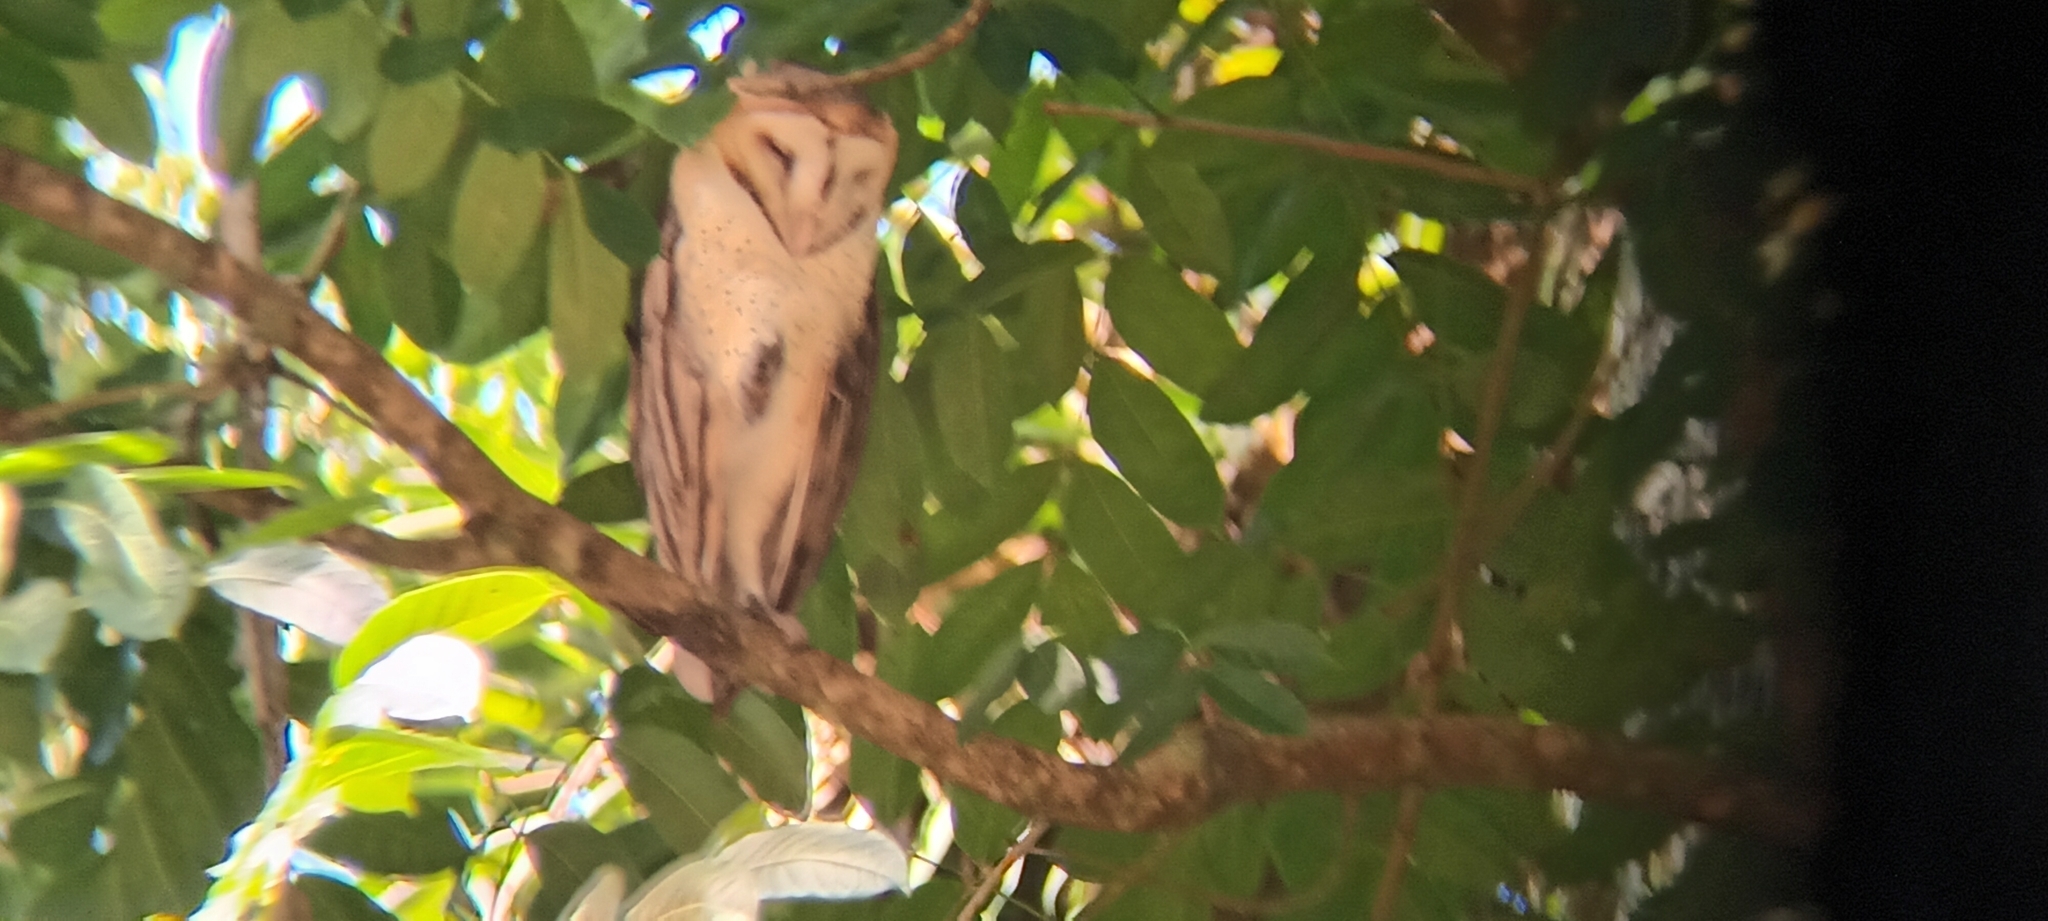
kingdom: Animalia
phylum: Chordata
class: Aves
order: Strigiformes
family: Tytonidae
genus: Tyto
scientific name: Tyto alba
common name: Barn owl
